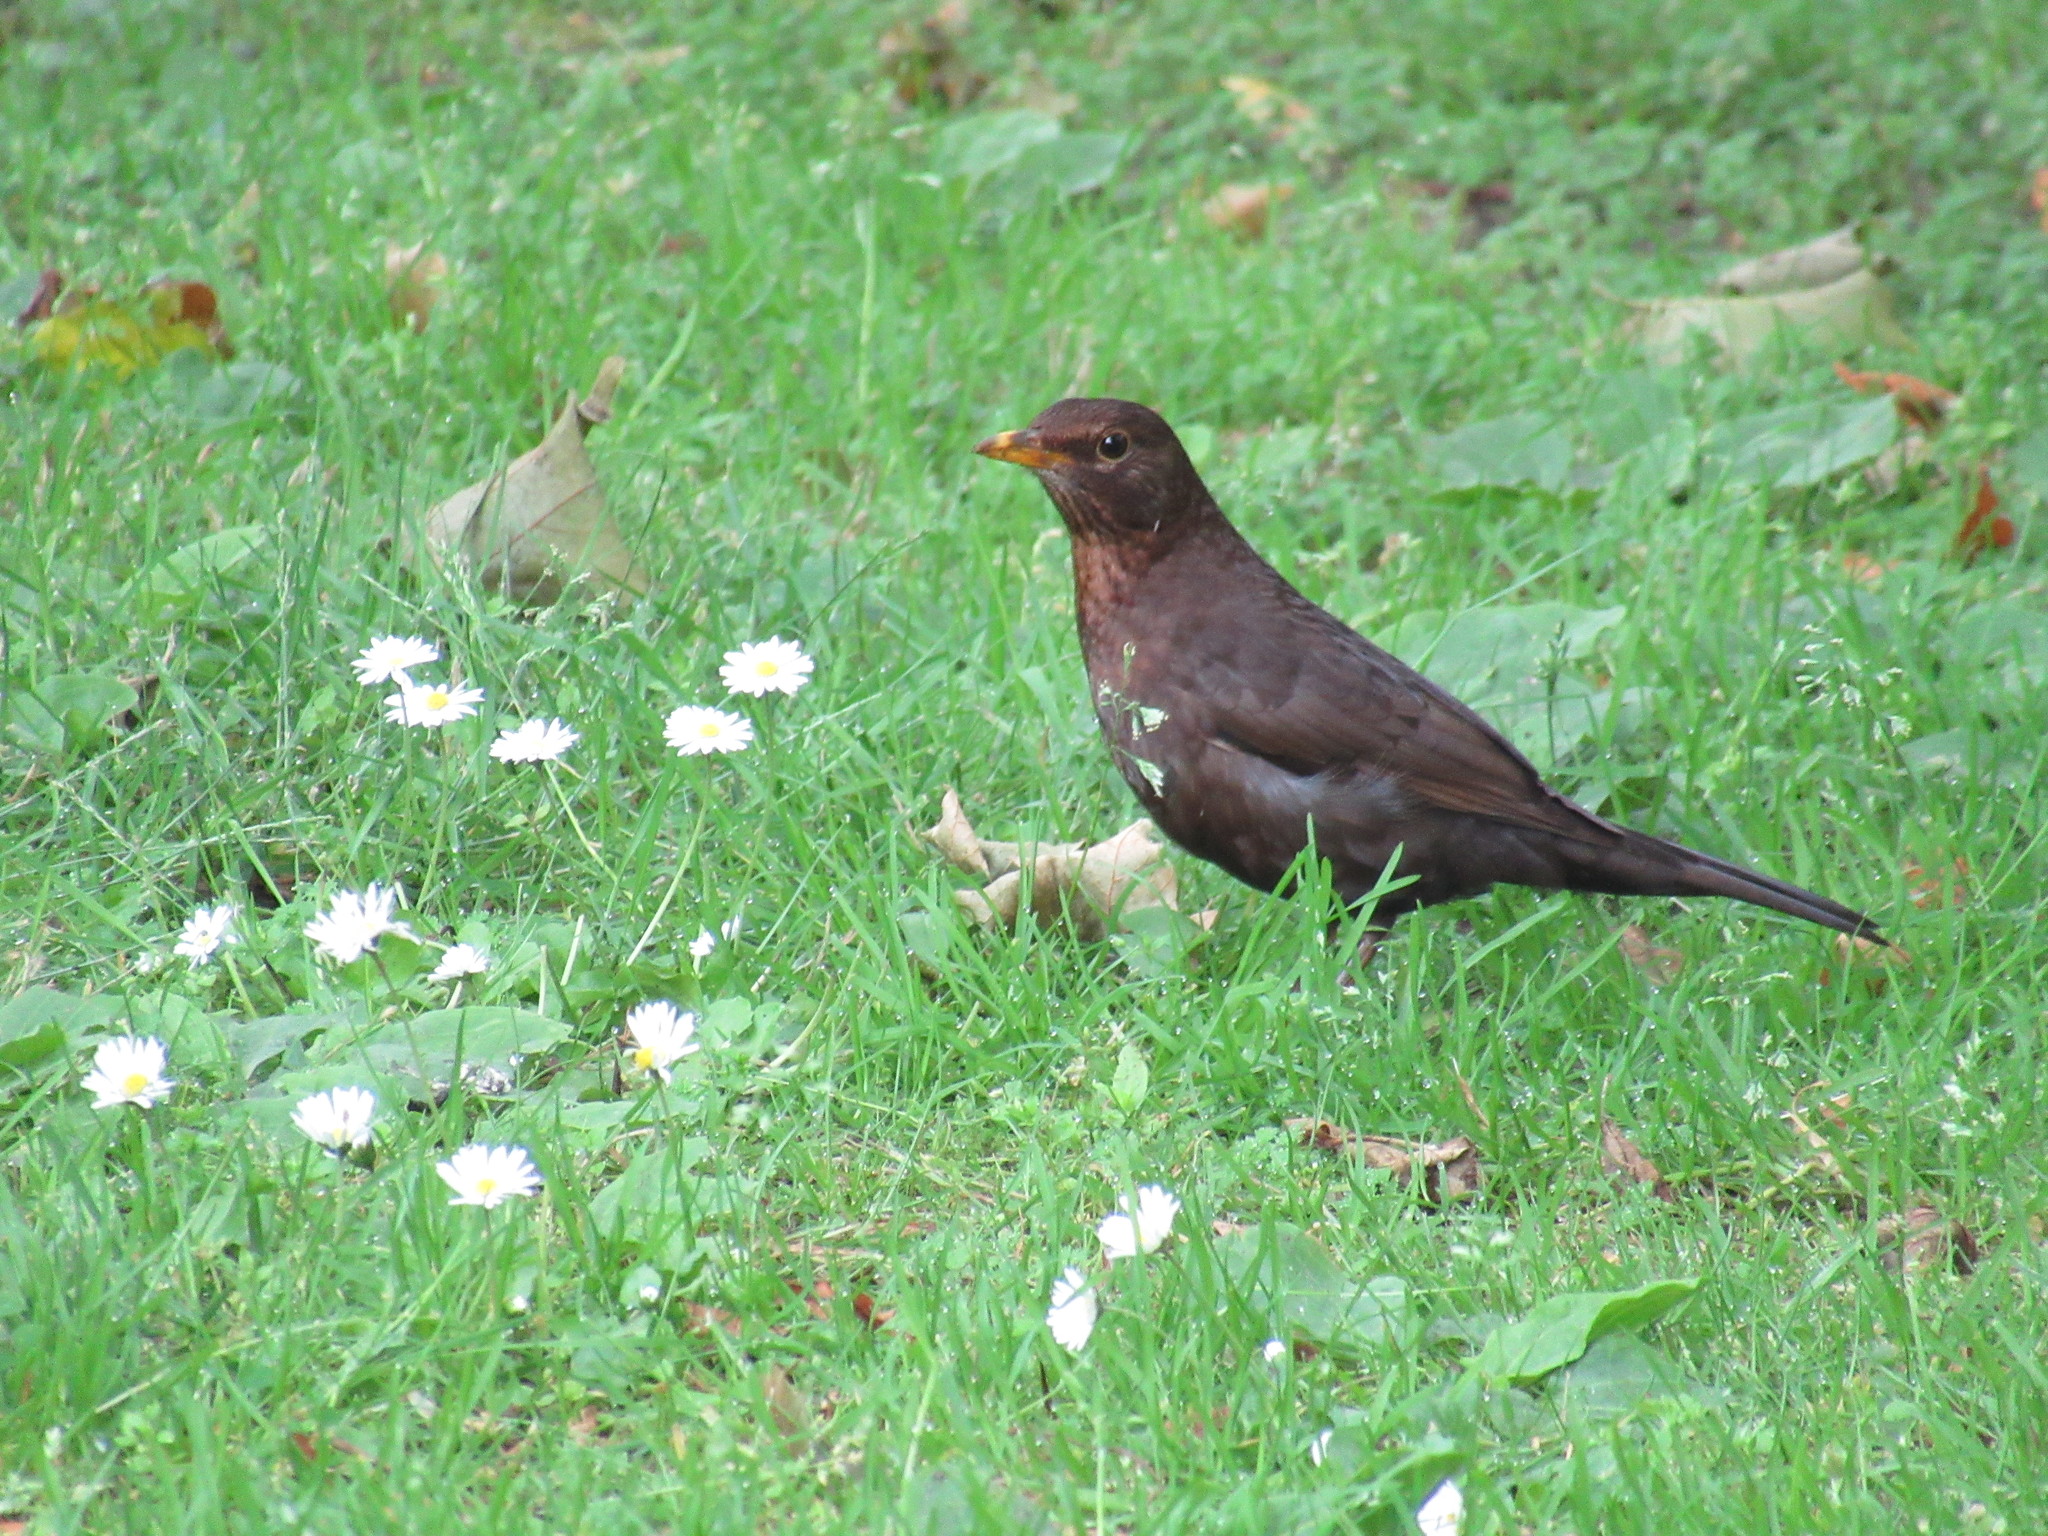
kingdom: Animalia
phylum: Chordata
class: Aves
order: Passeriformes
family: Turdidae
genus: Turdus
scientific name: Turdus merula
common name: Common blackbird
